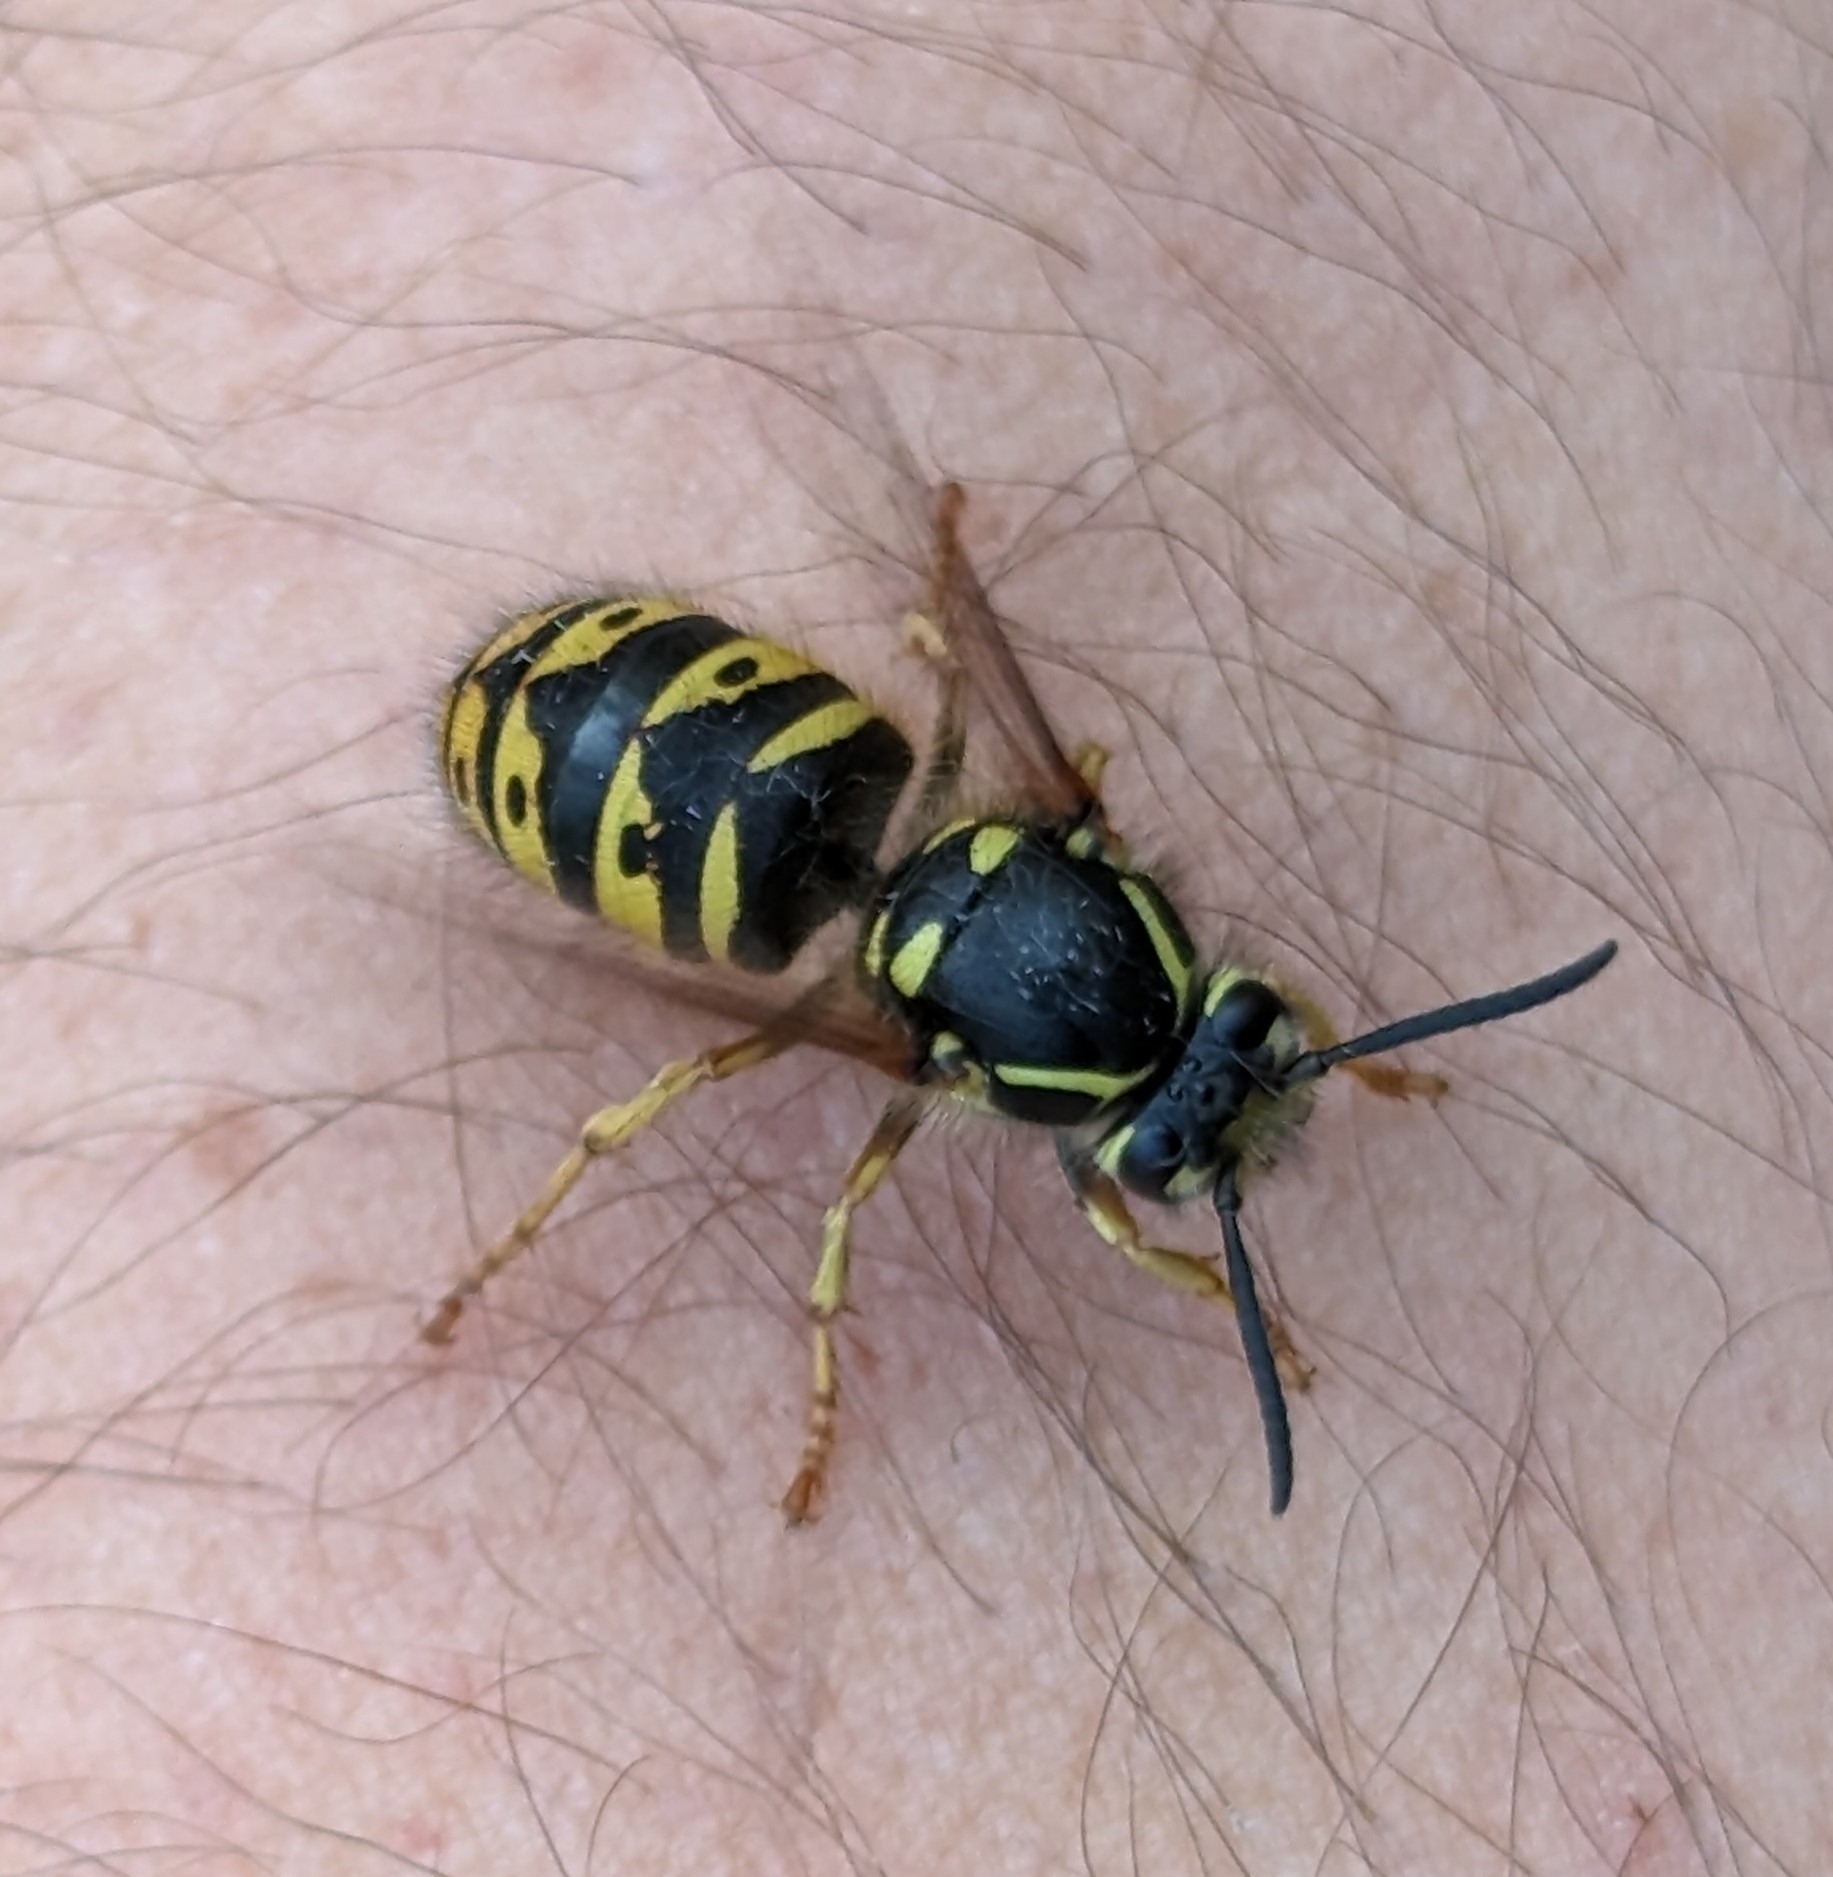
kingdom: Animalia
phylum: Arthropoda
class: Insecta
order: Hymenoptera
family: Vespidae
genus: Dolichovespula
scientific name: Dolichovespula arenaria
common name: Aerial yellowjacket
